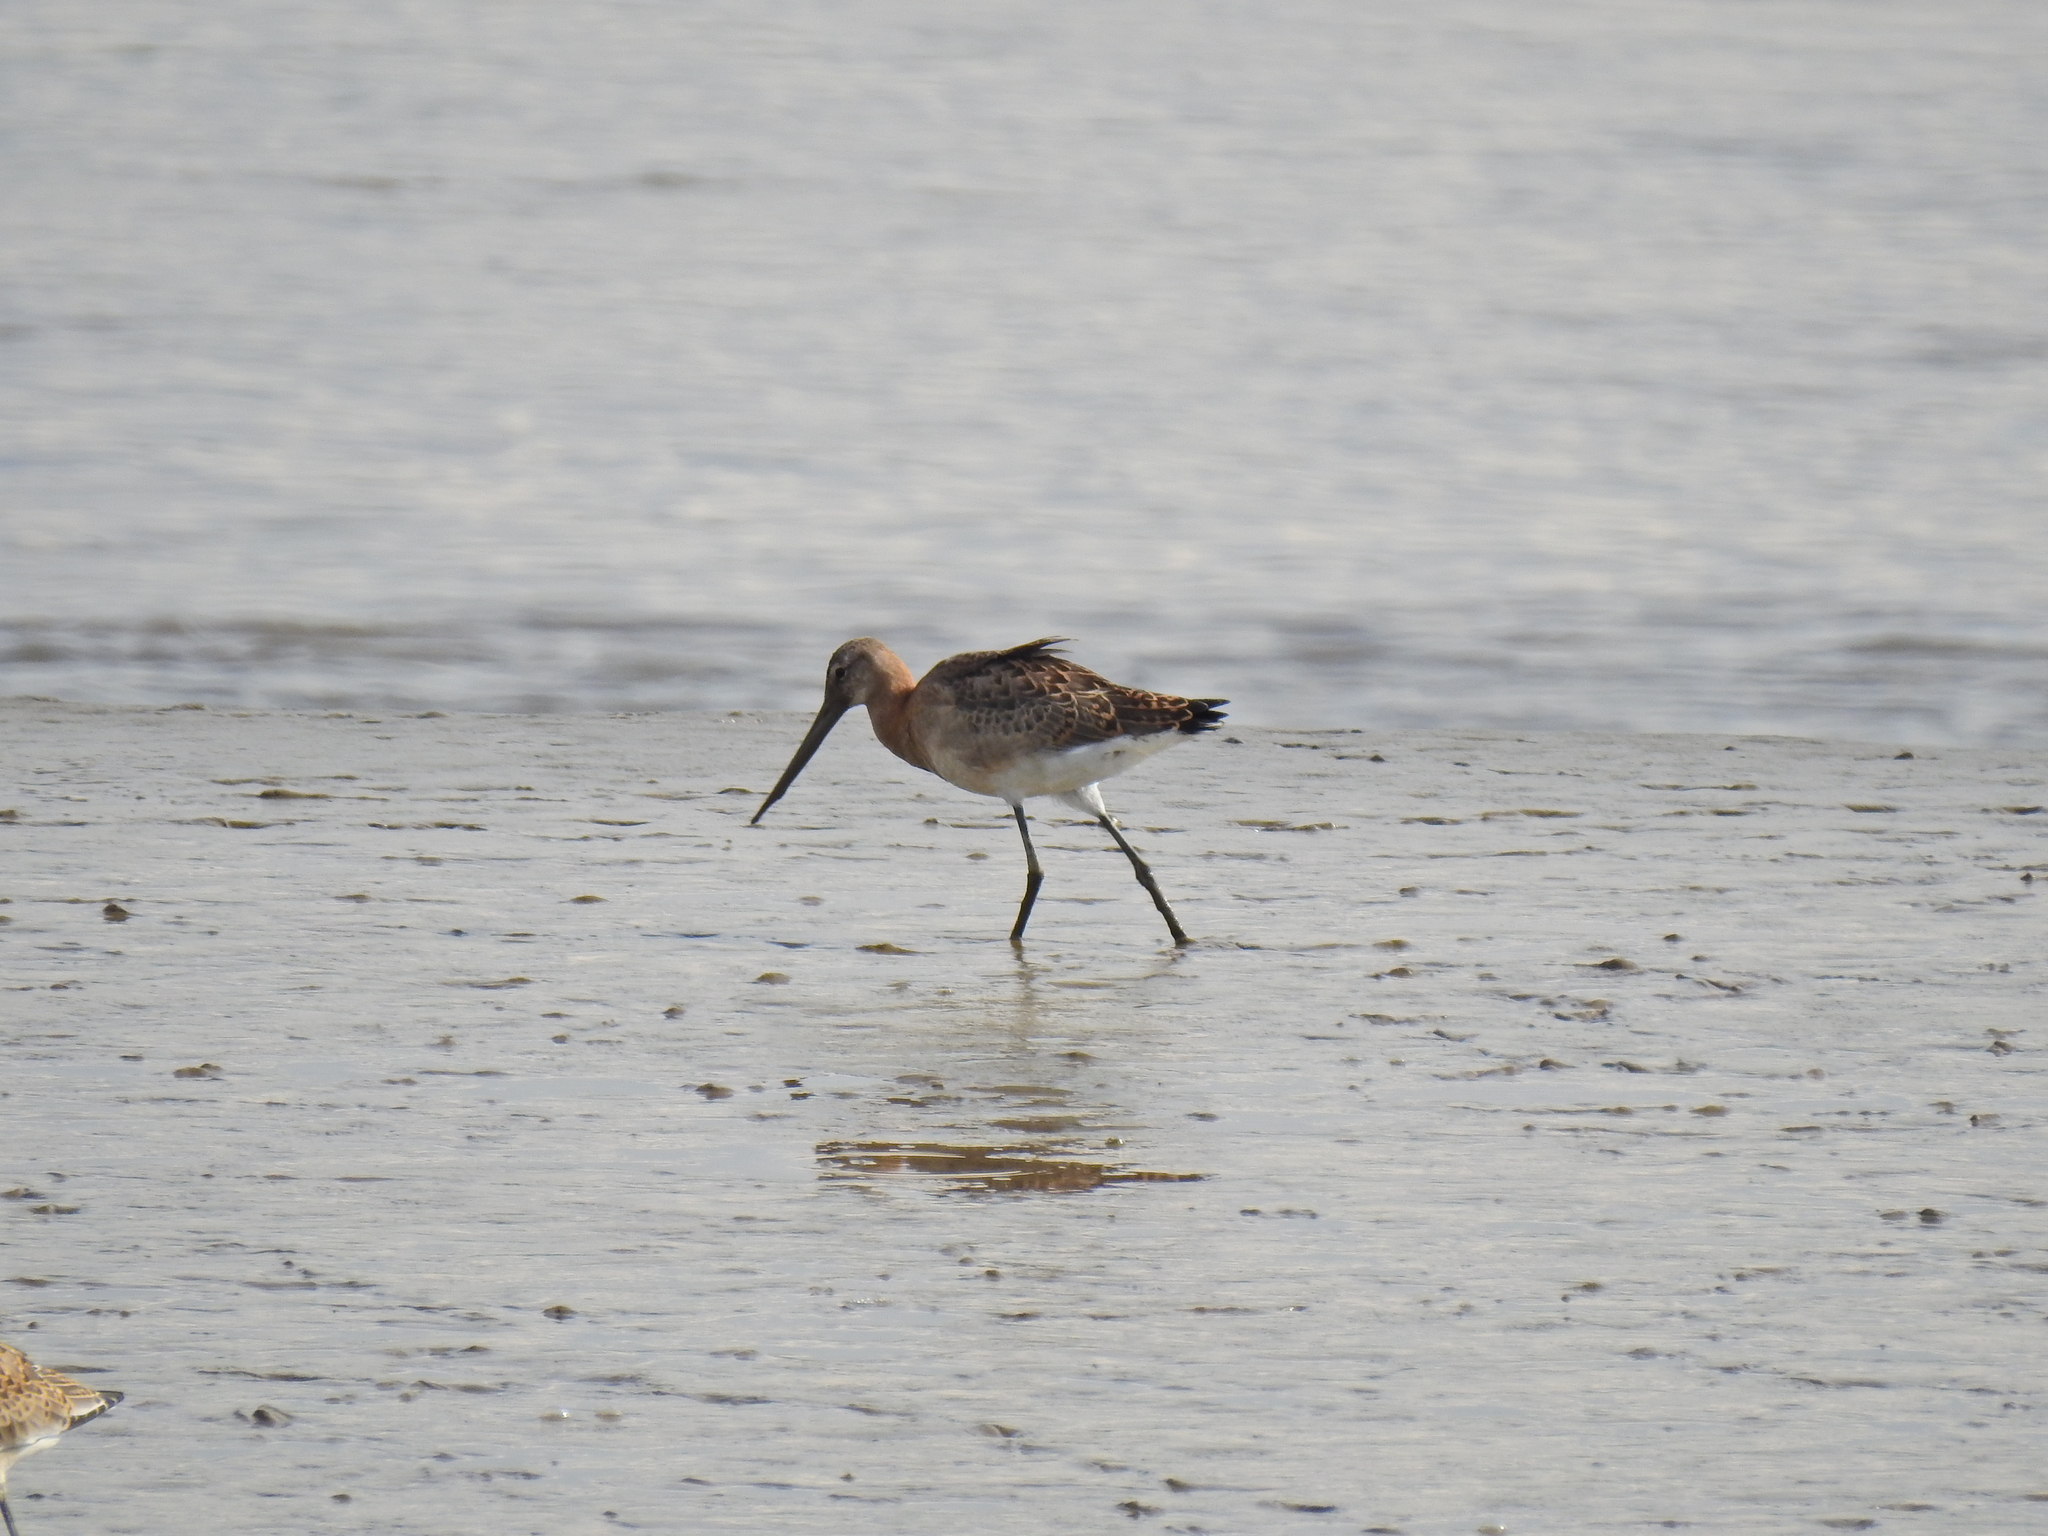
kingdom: Animalia
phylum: Chordata
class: Aves
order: Charadriiformes
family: Scolopacidae
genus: Limosa
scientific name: Limosa limosa
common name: Black-tailed godwit
